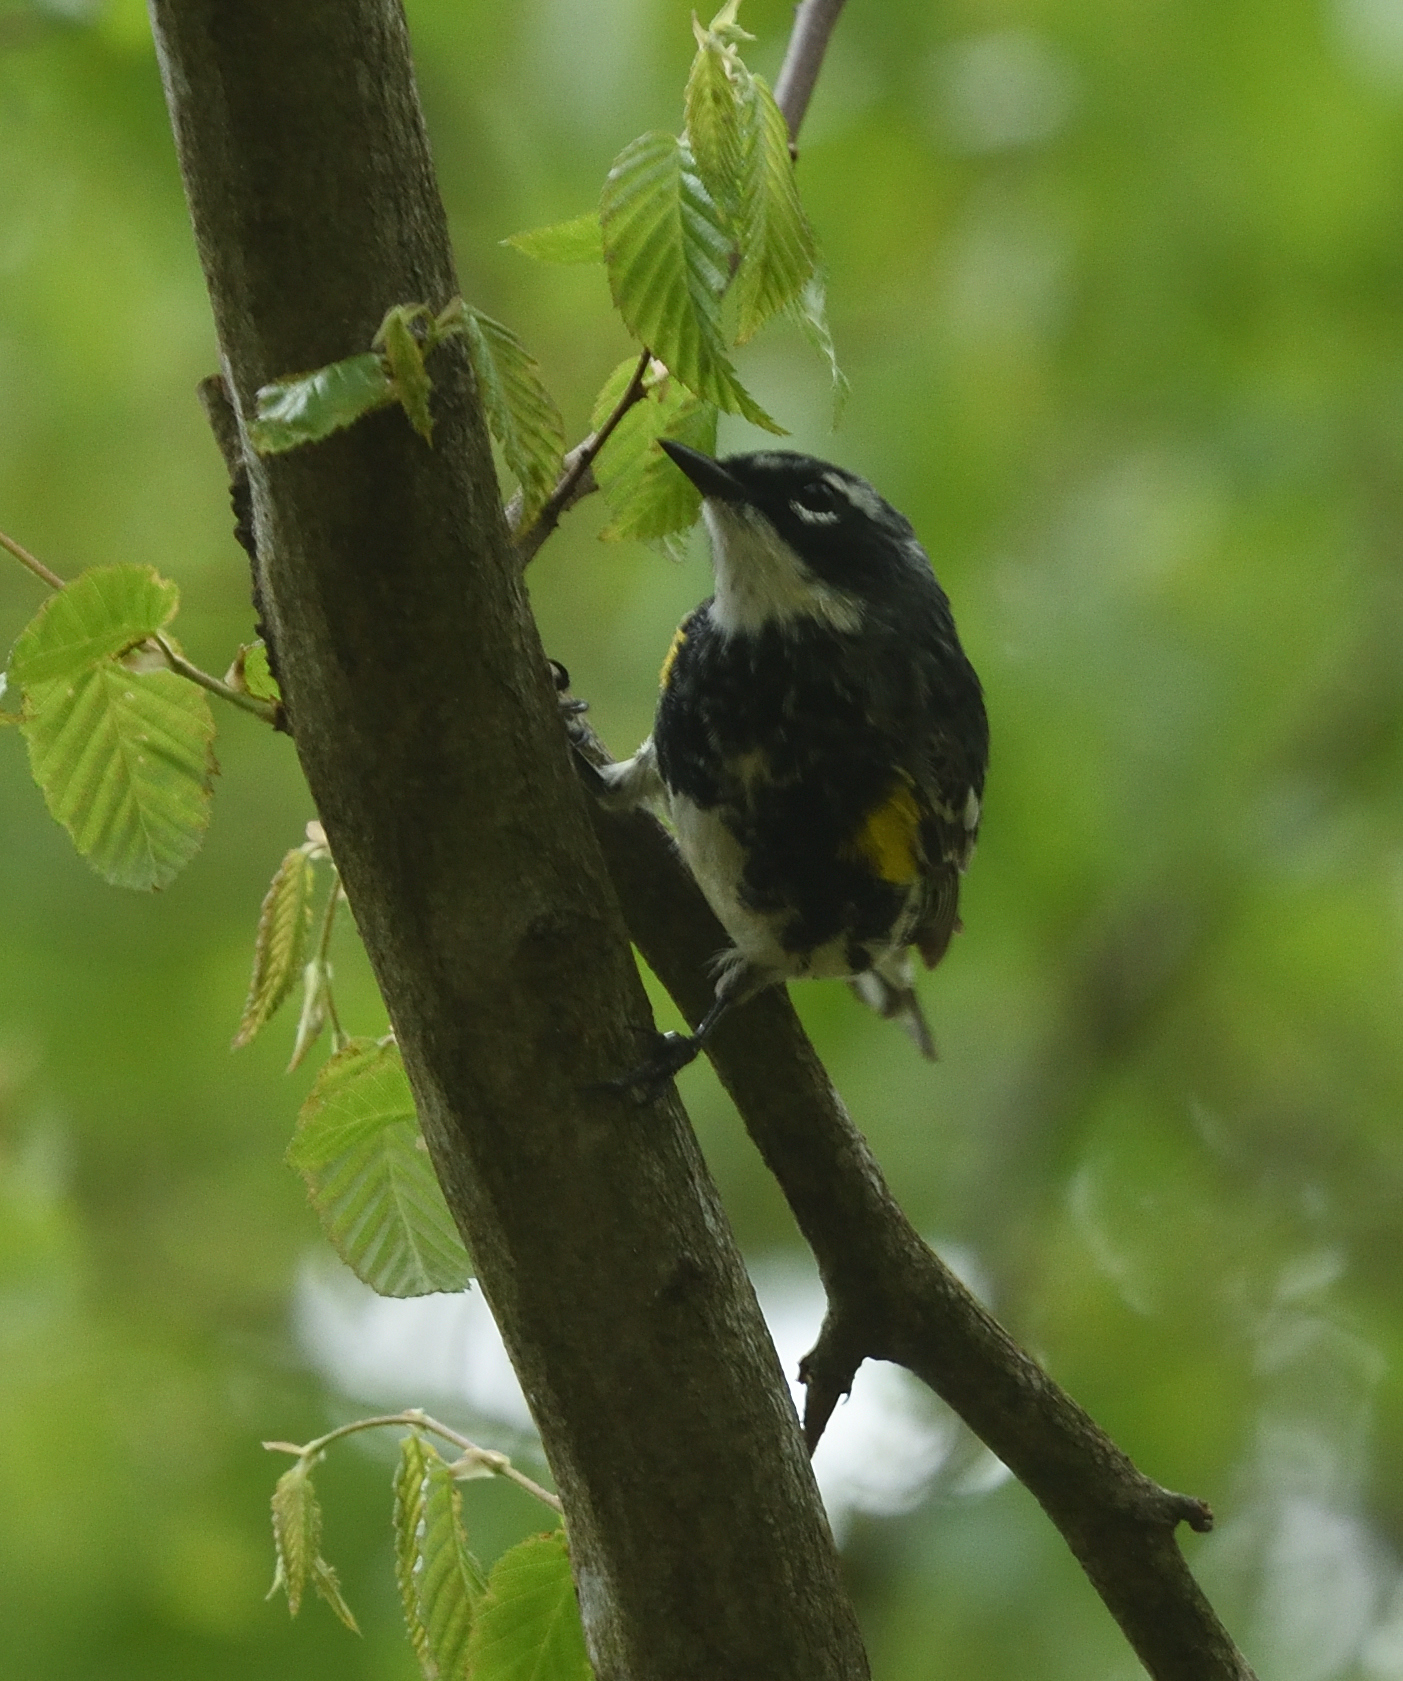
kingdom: Animalia
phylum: Chordata
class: Aves
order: Passeriformes
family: Parulidae
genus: Setophaga
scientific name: Setophaga coronata
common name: Myrtle warbler
